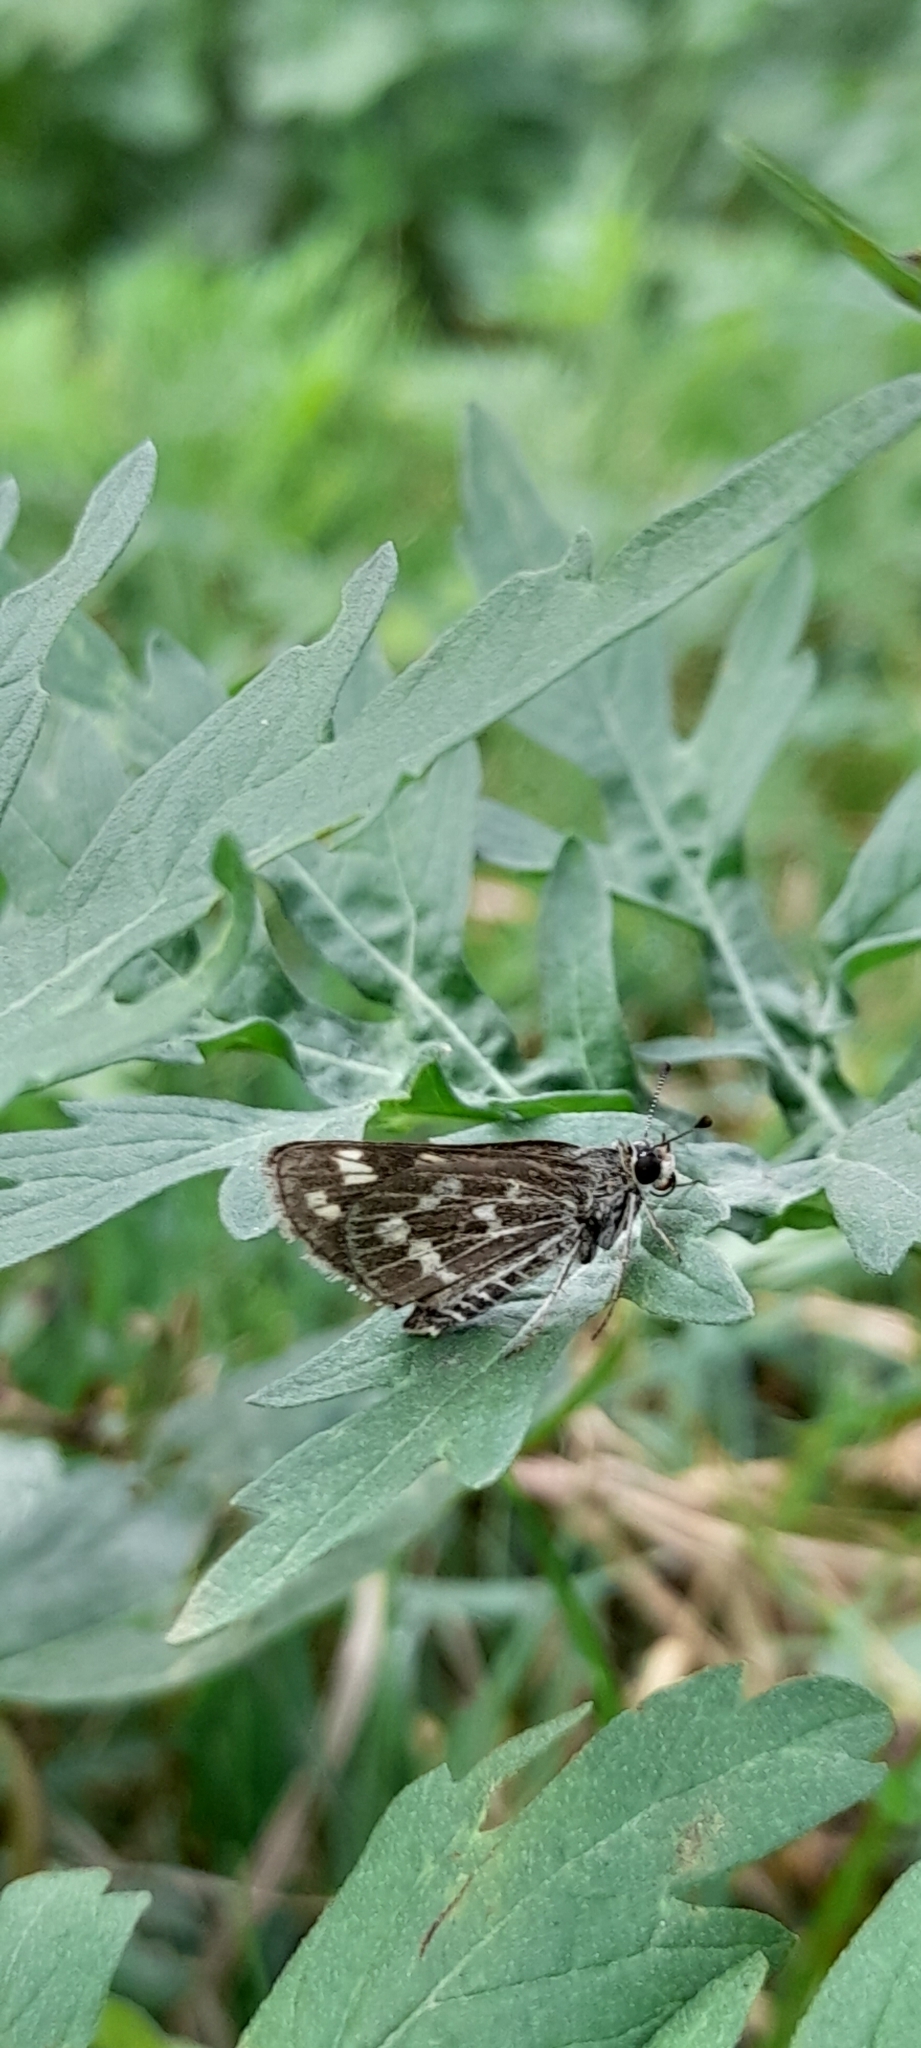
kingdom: Animalia
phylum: Arthropoda
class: Insecta
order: Lepidoptera
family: Hesperiidae
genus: Taractrocera
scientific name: Taractrocera maevius
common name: Common grass-dart
